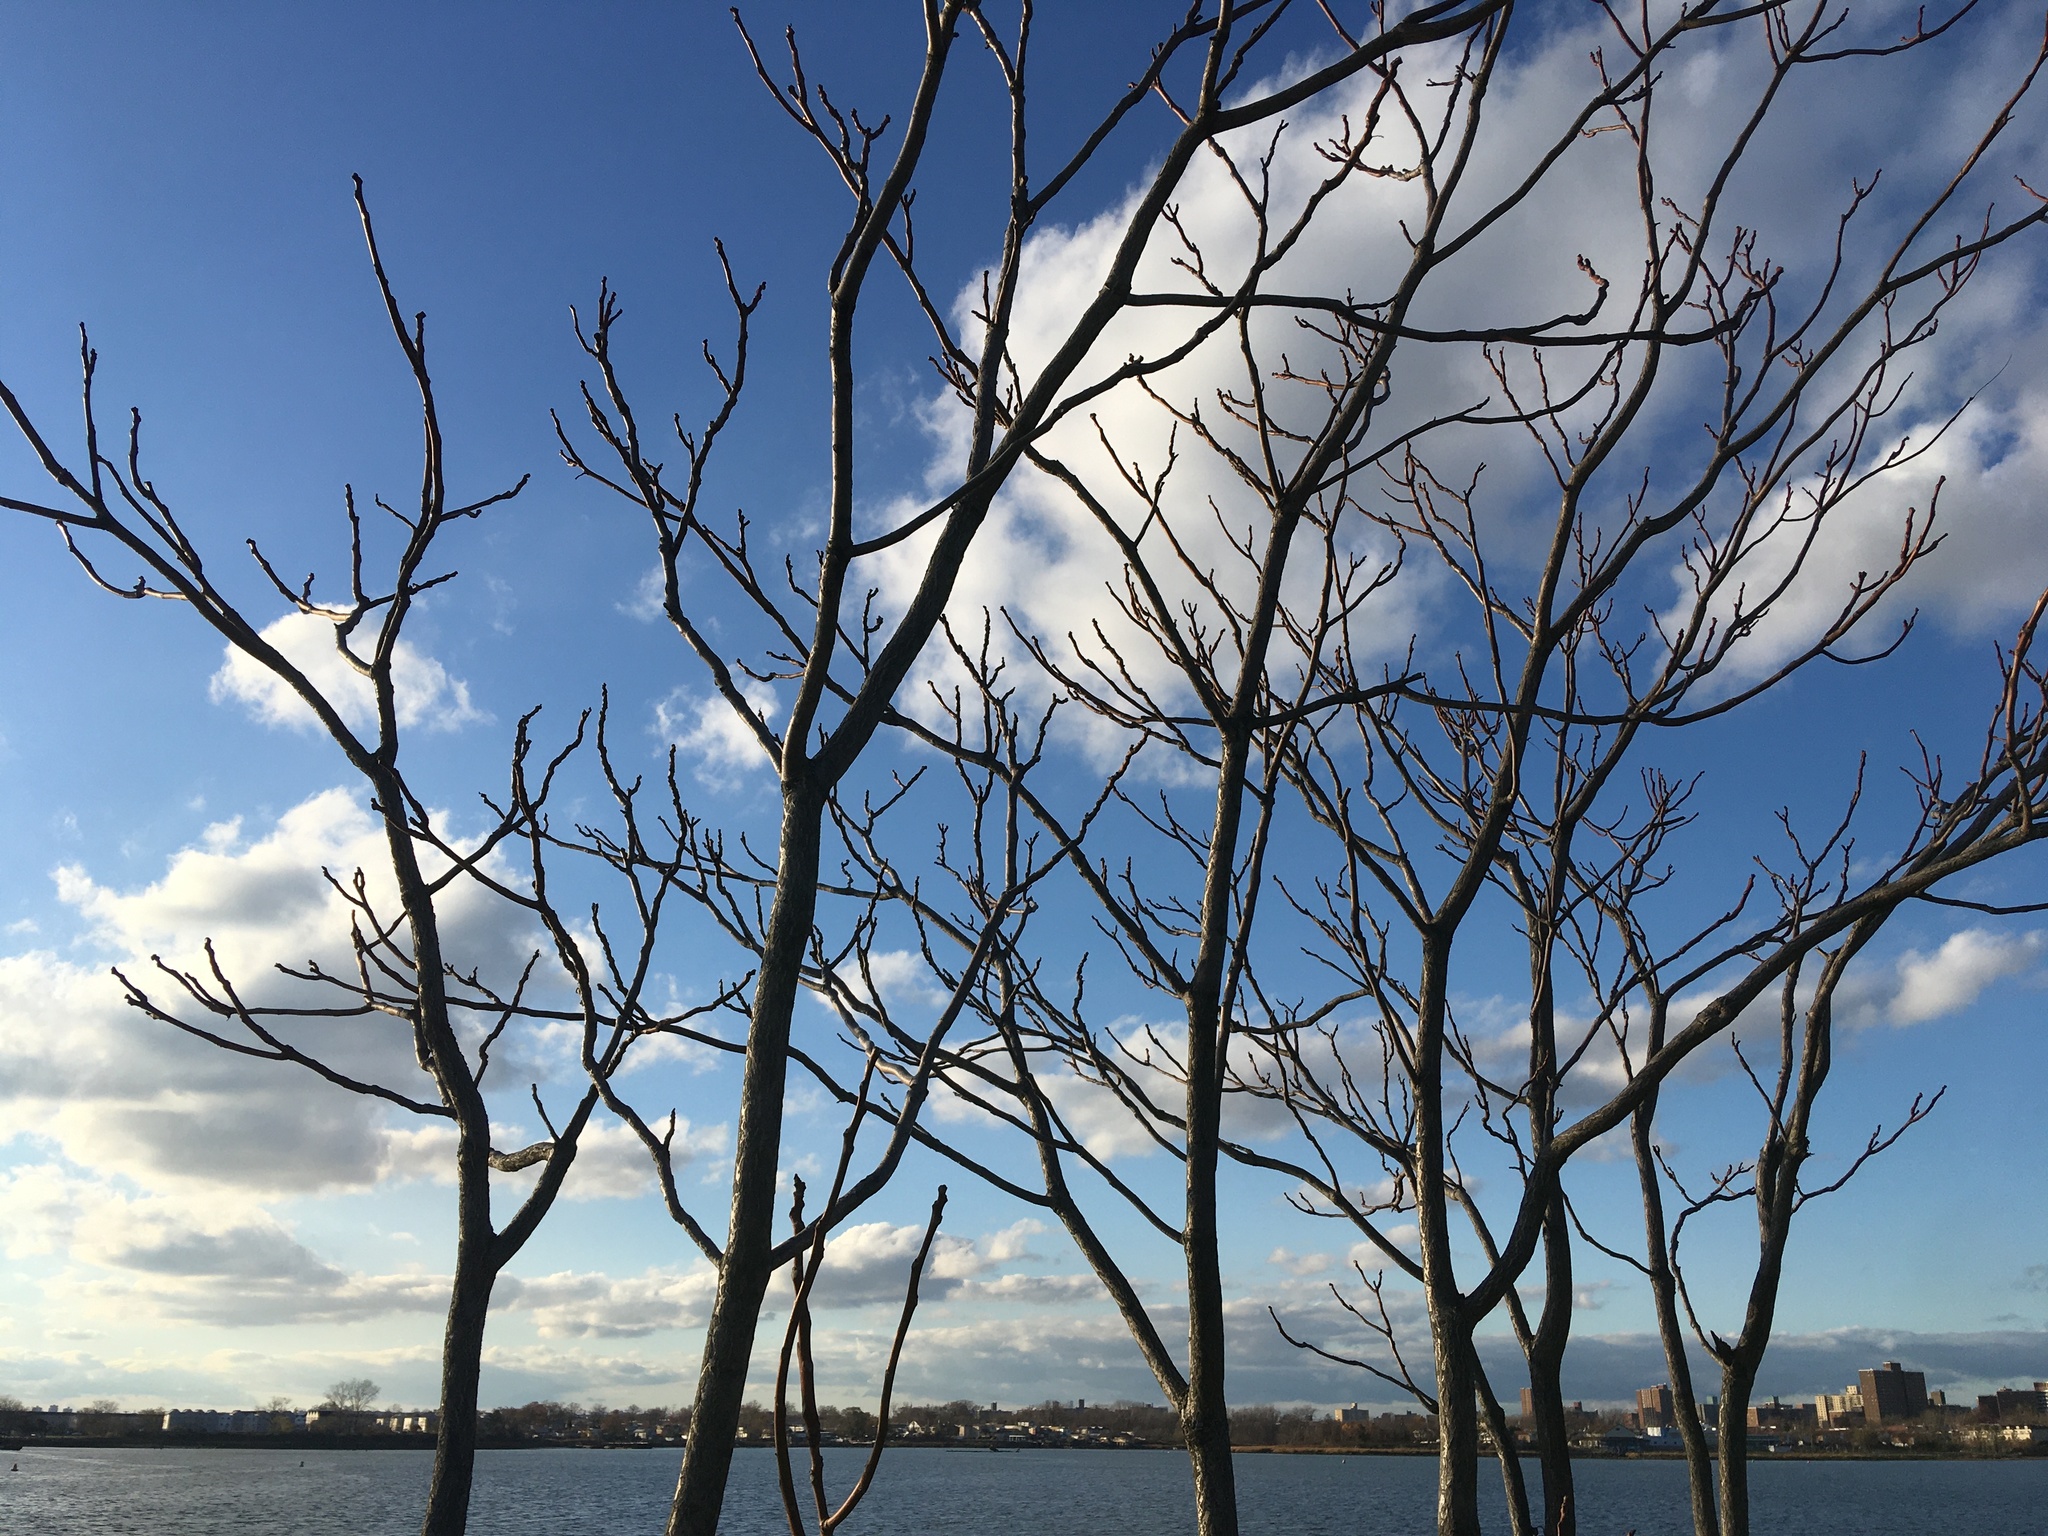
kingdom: Plantae
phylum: Tracheophyta
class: Magnoliopsida
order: Sapindales
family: Simaroubaceae
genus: Ailanthus
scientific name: Ailanthus altissima
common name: Tree-of-heaven
